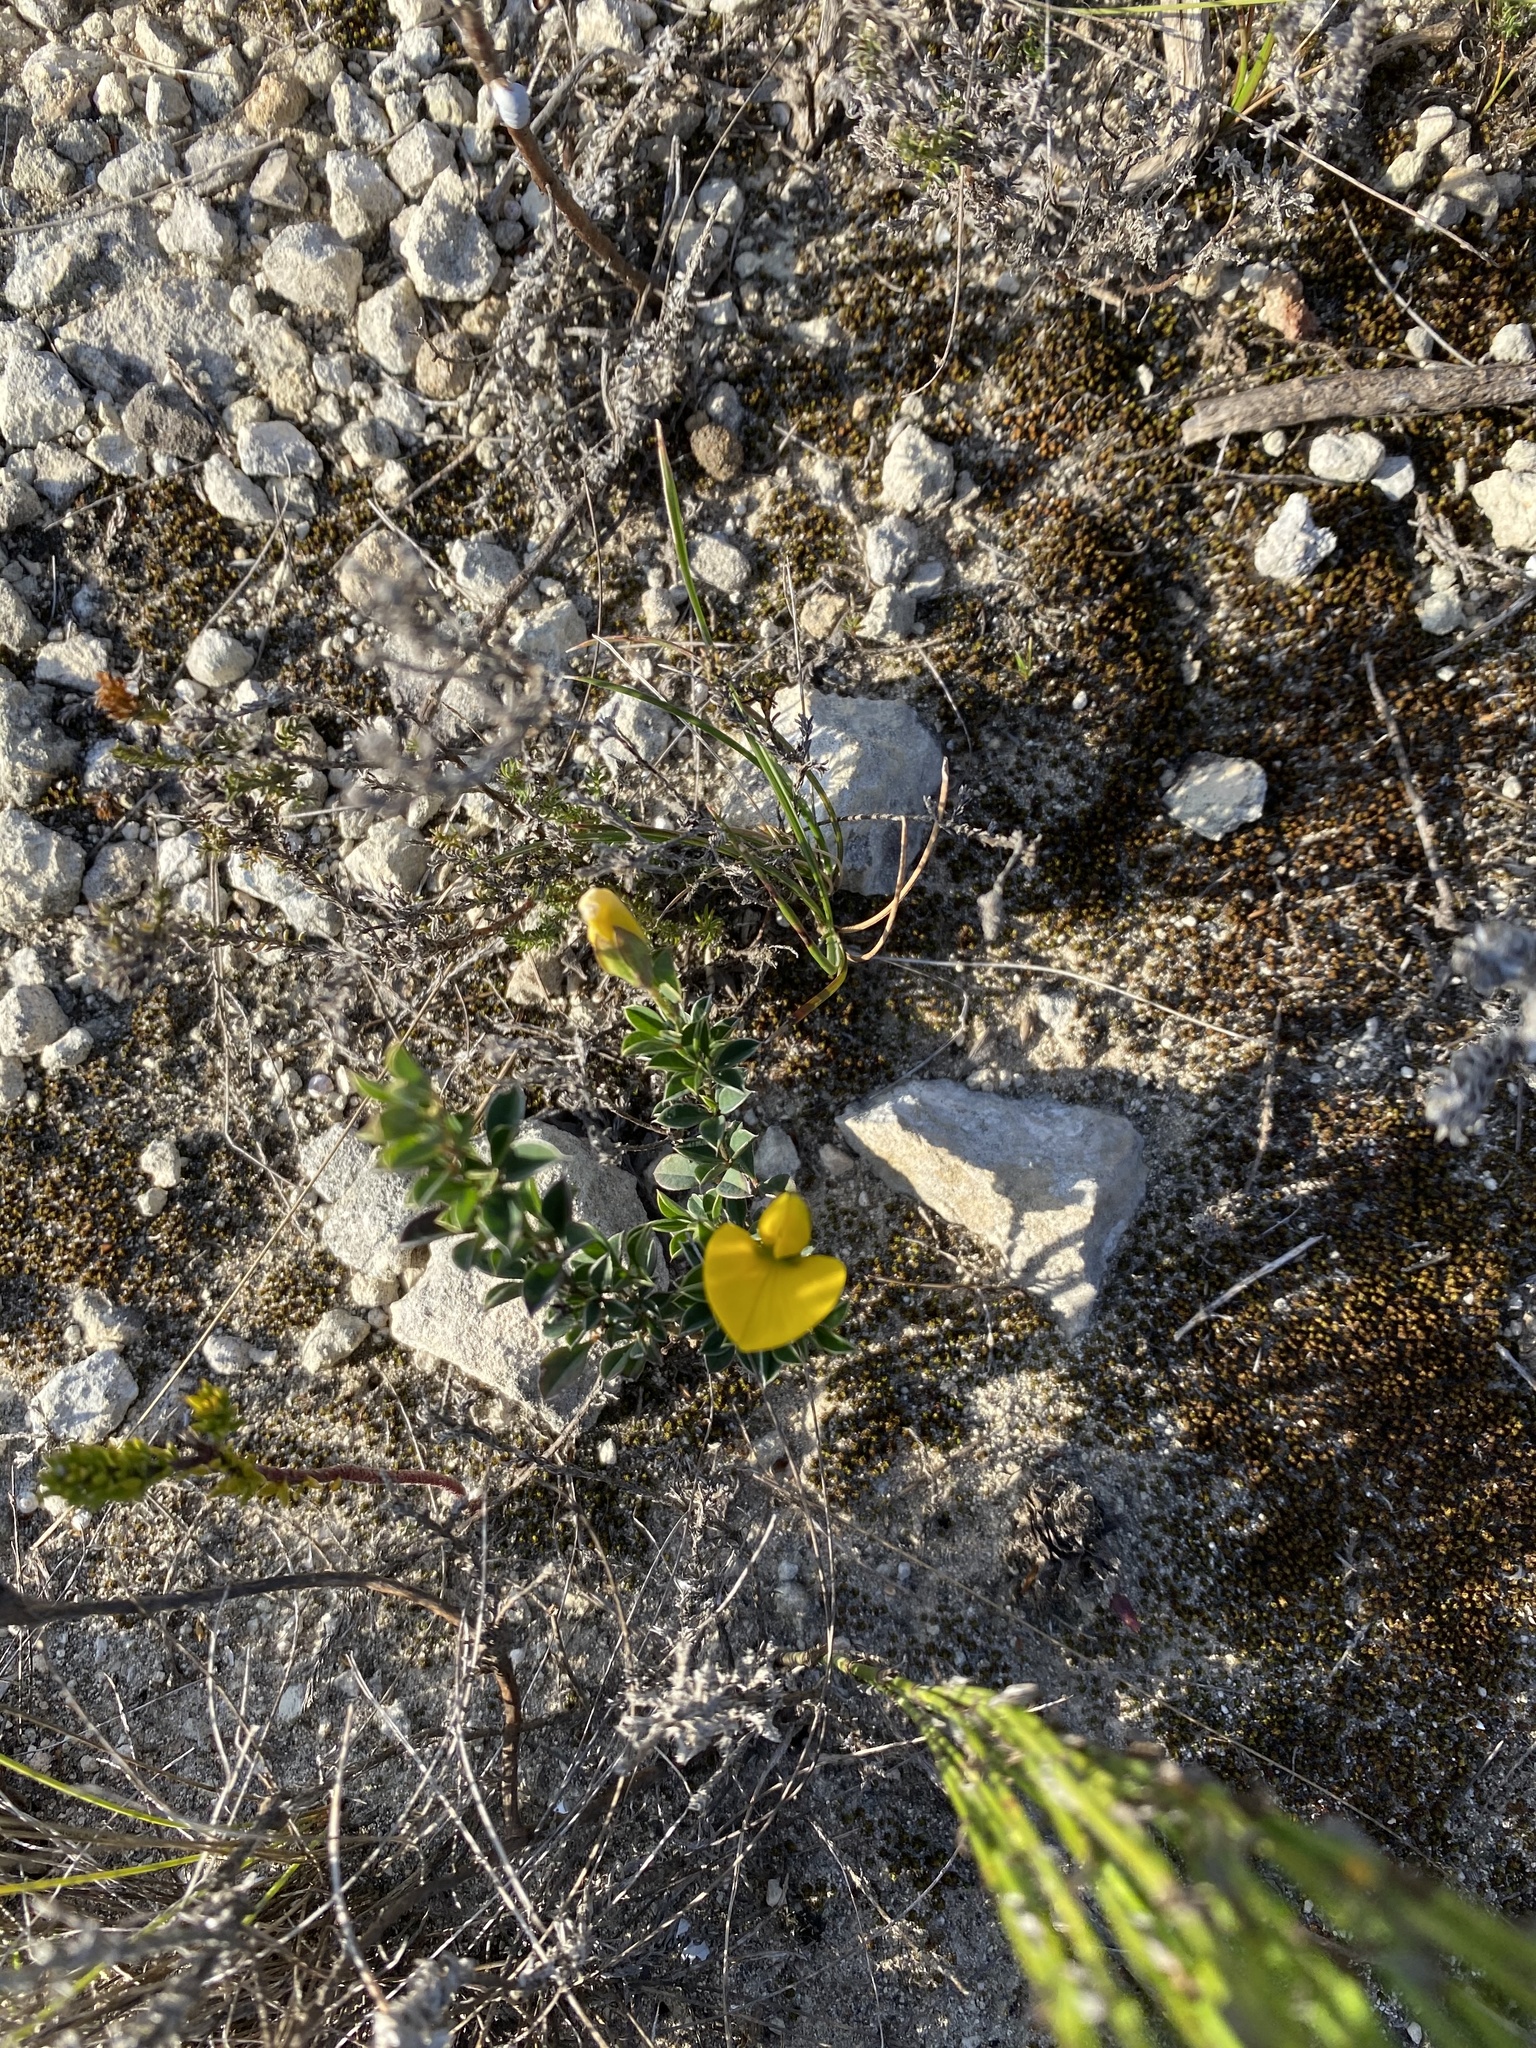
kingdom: Plantae
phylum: Tracheophyta
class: Magnoliopsida
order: Fabales
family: Fabaceae
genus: Argyrolobium
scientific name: Argyrolobium harmsianum
